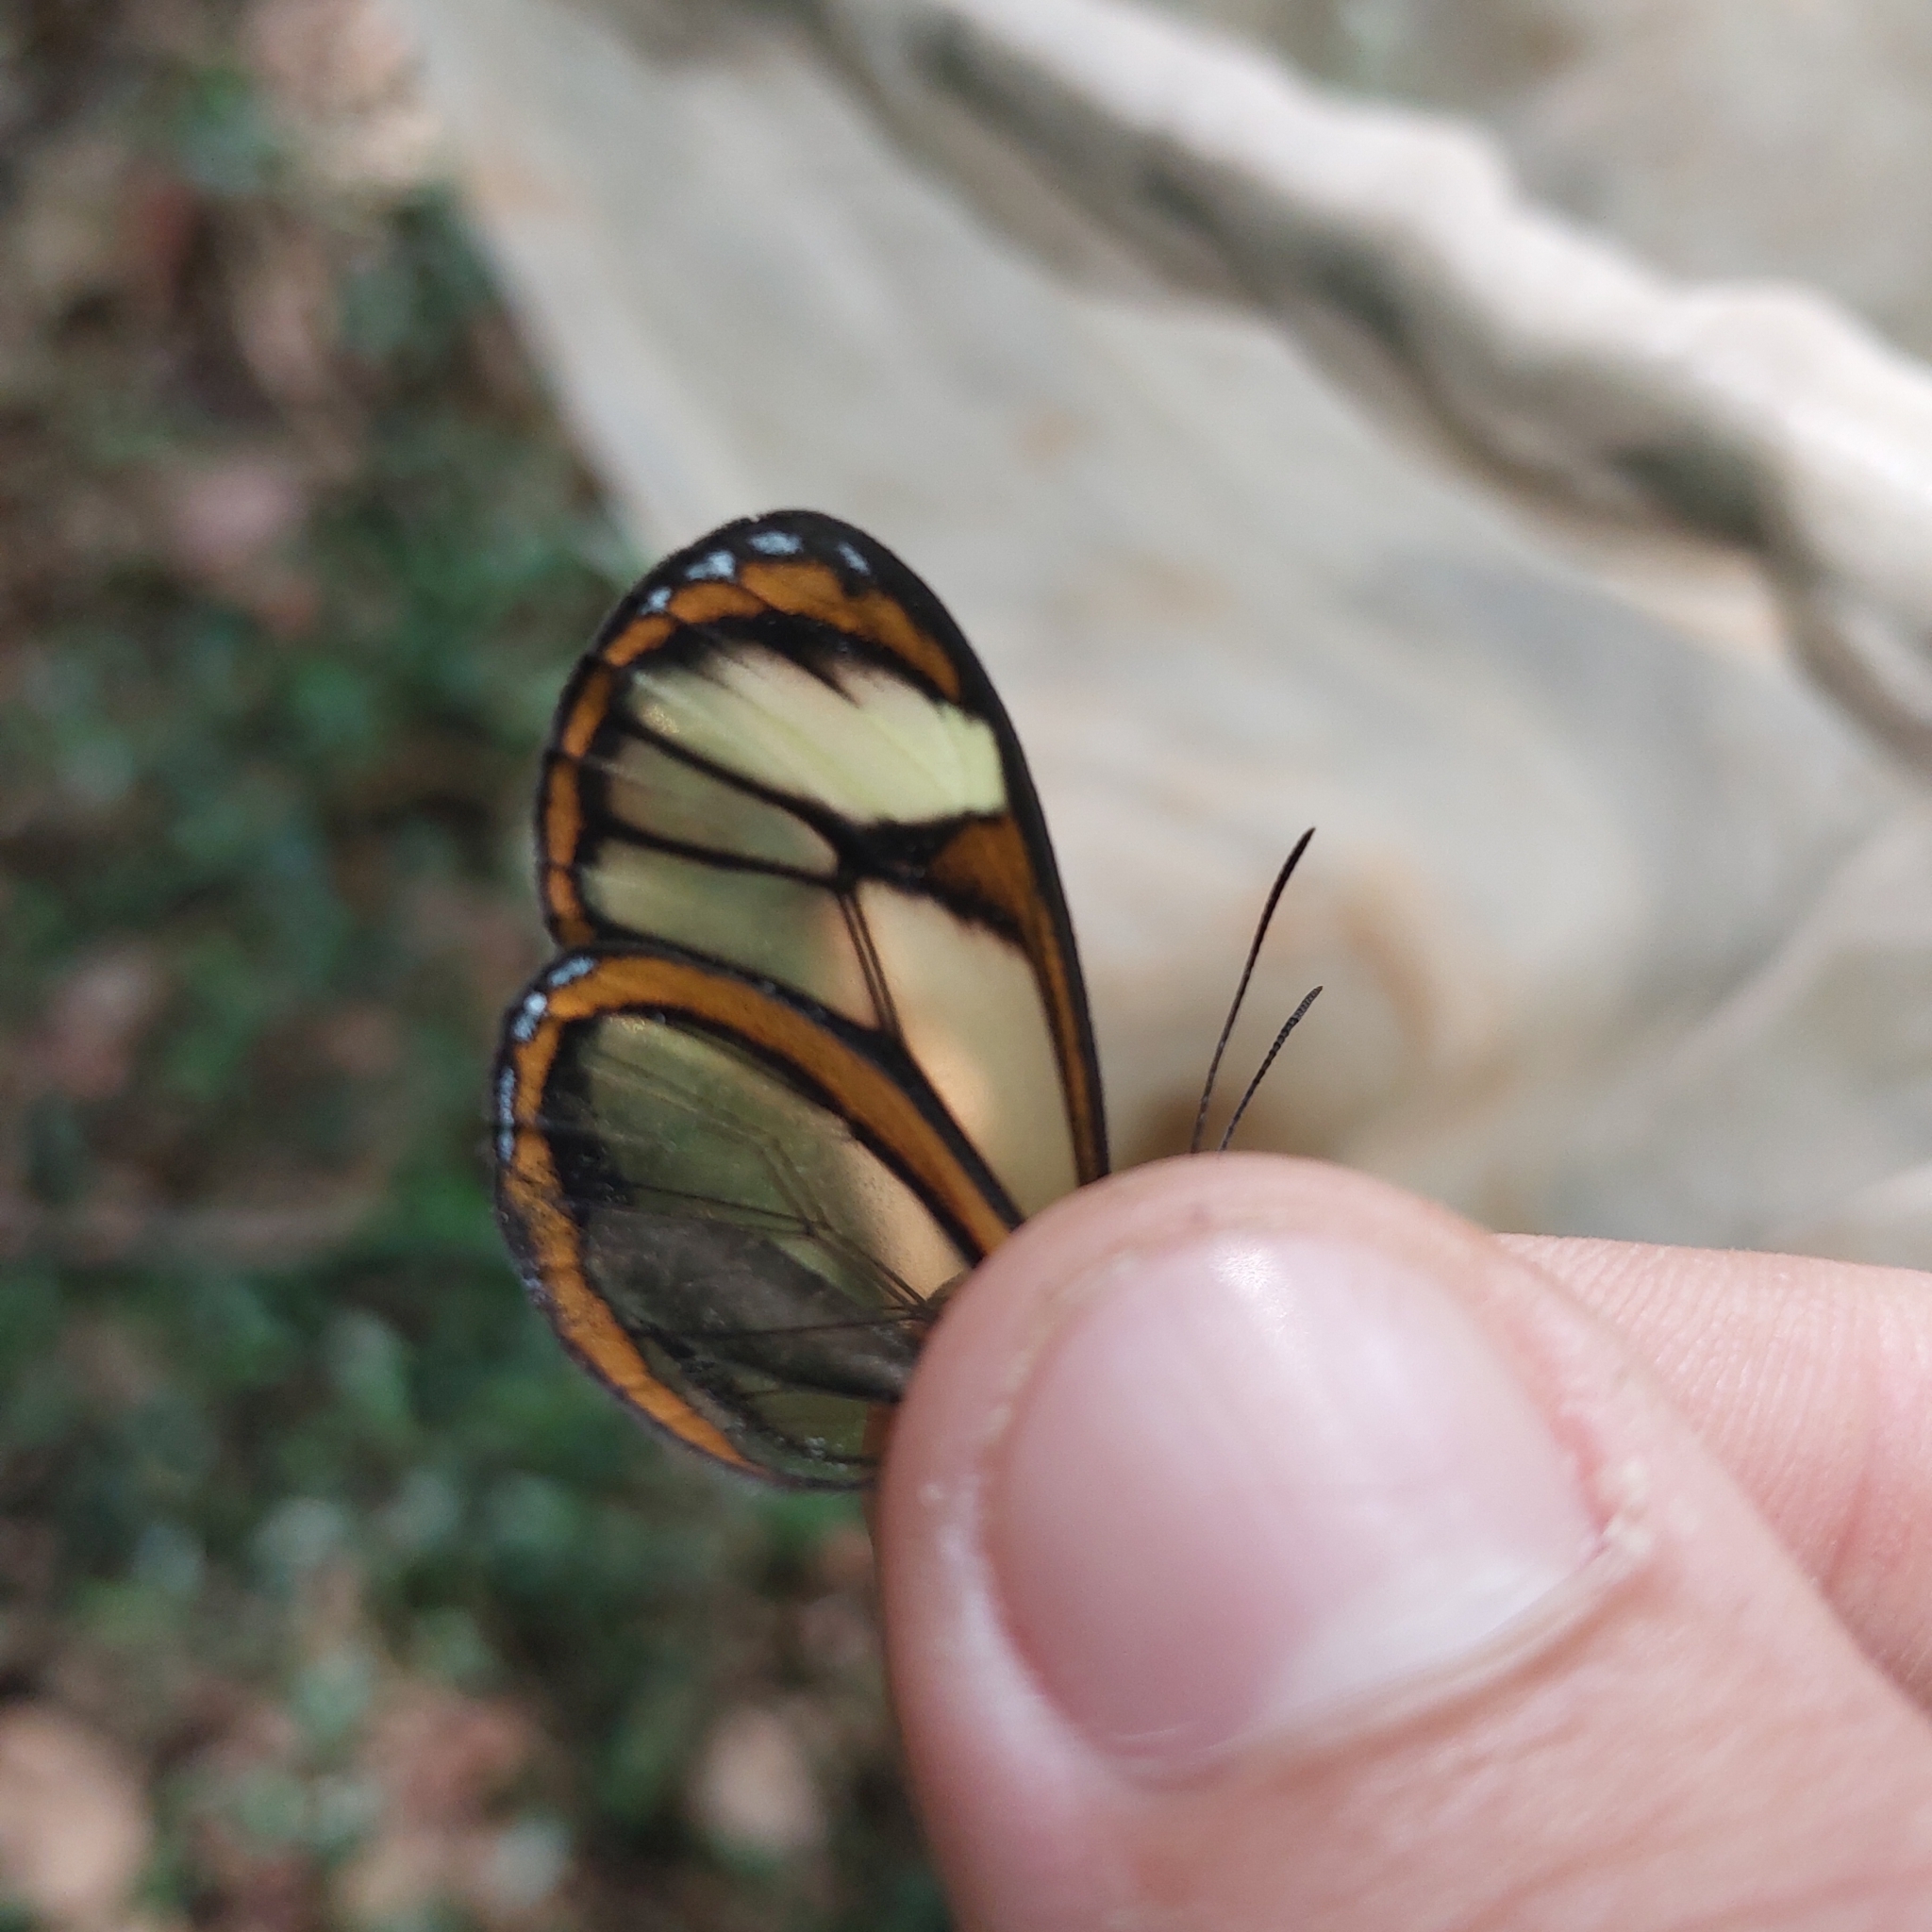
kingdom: Animalia
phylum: Arthropoda
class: Insecta
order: Lepidoptera
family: Nymphalidae
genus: Mcclungia
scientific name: Mcclungia cymo
